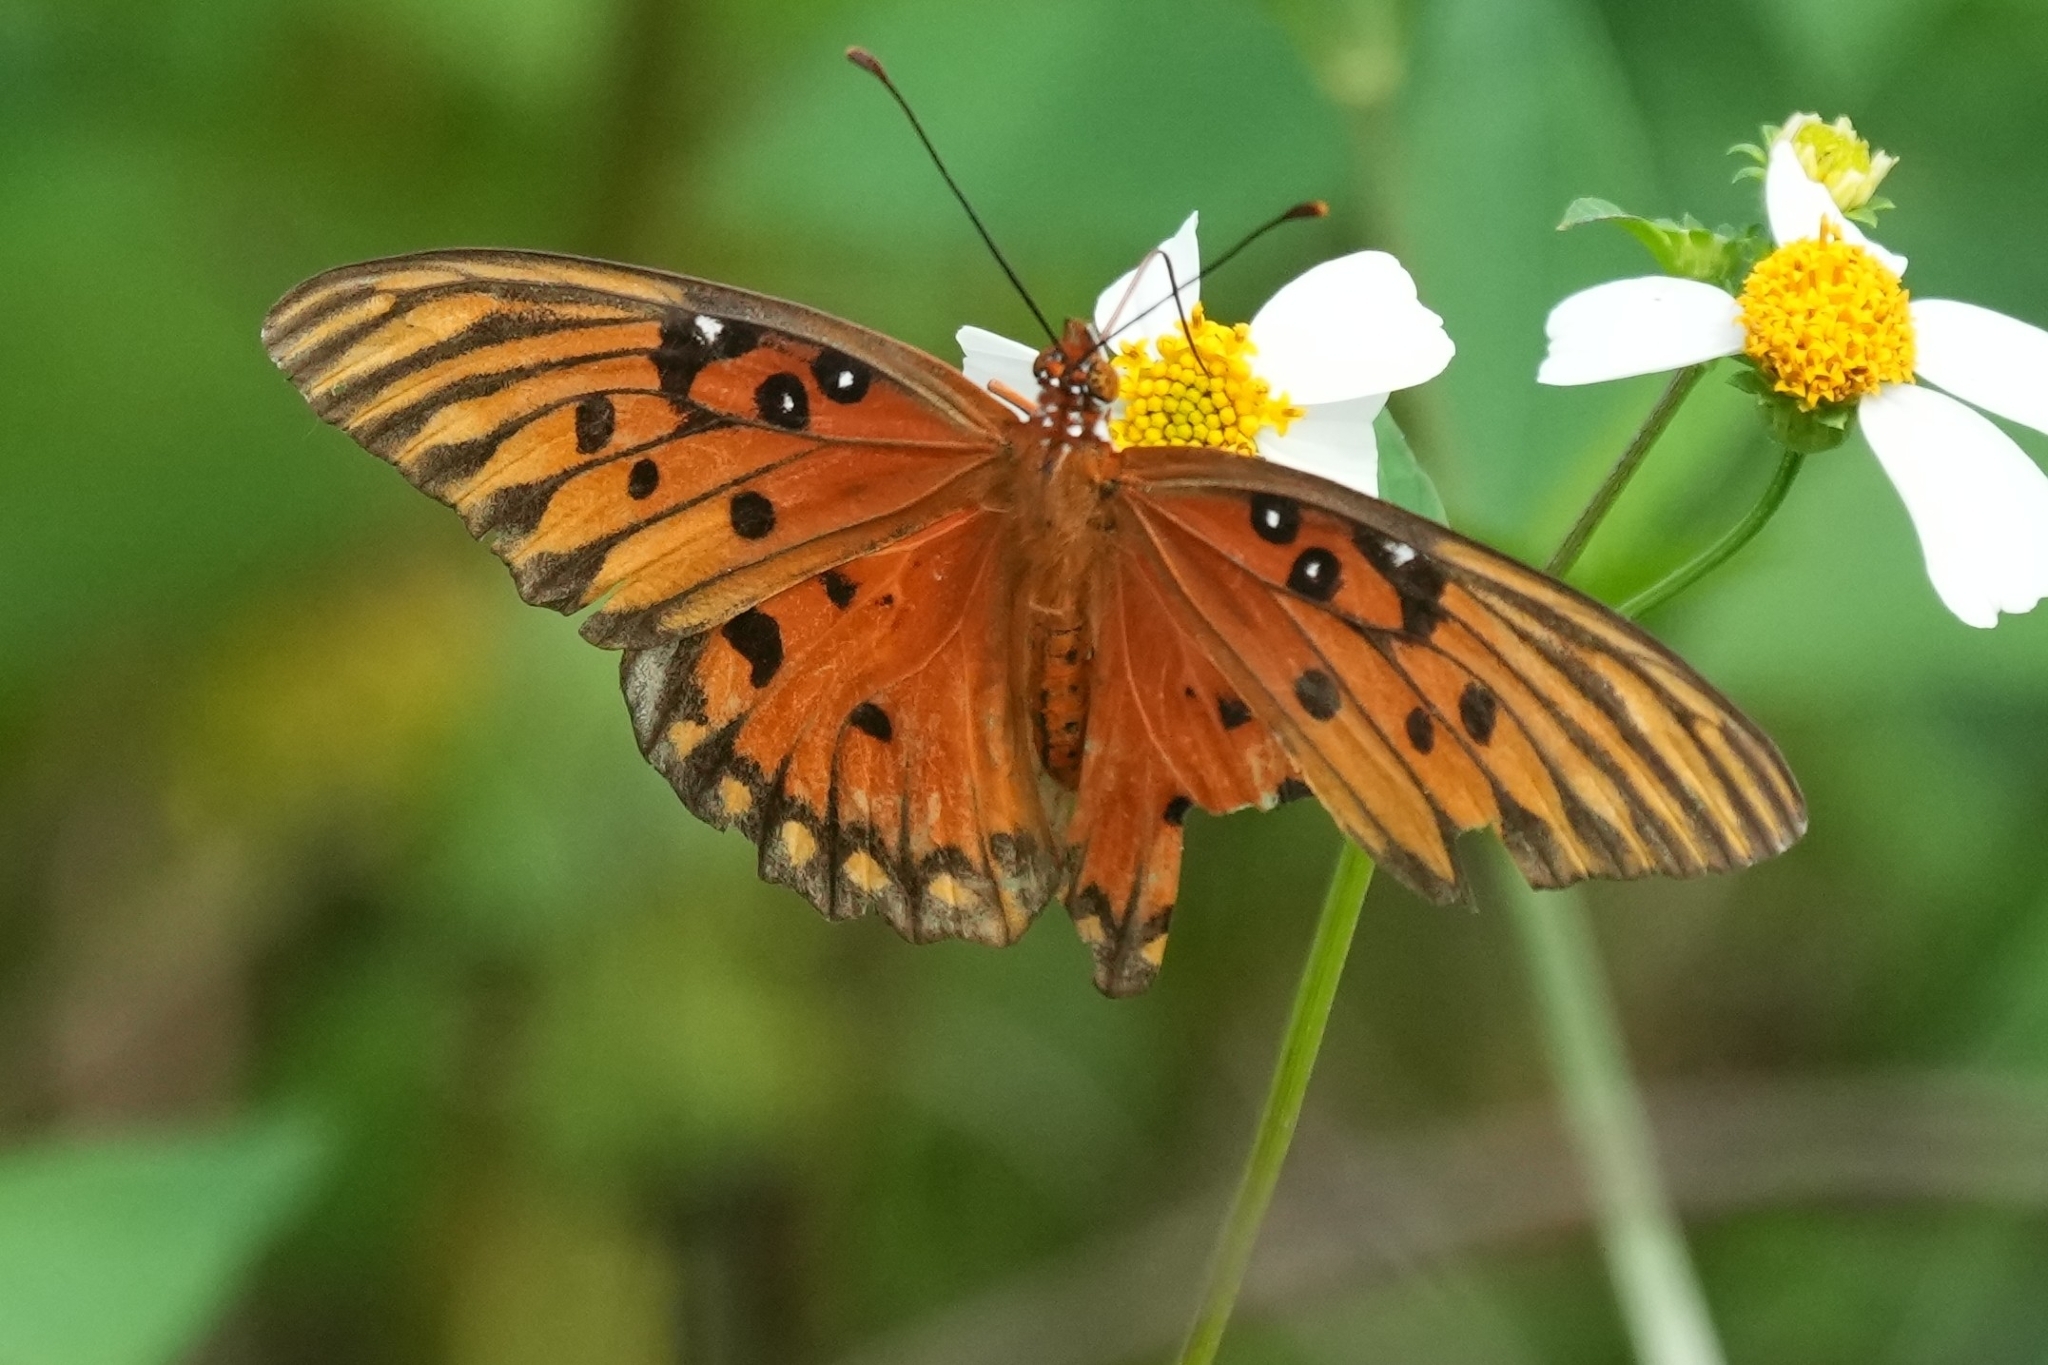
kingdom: Animalia
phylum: Arthropoda
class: Insecta
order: Lepidoptera
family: Nymphalidae
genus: Dione
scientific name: Dione vanillae
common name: Gulf fritillary
